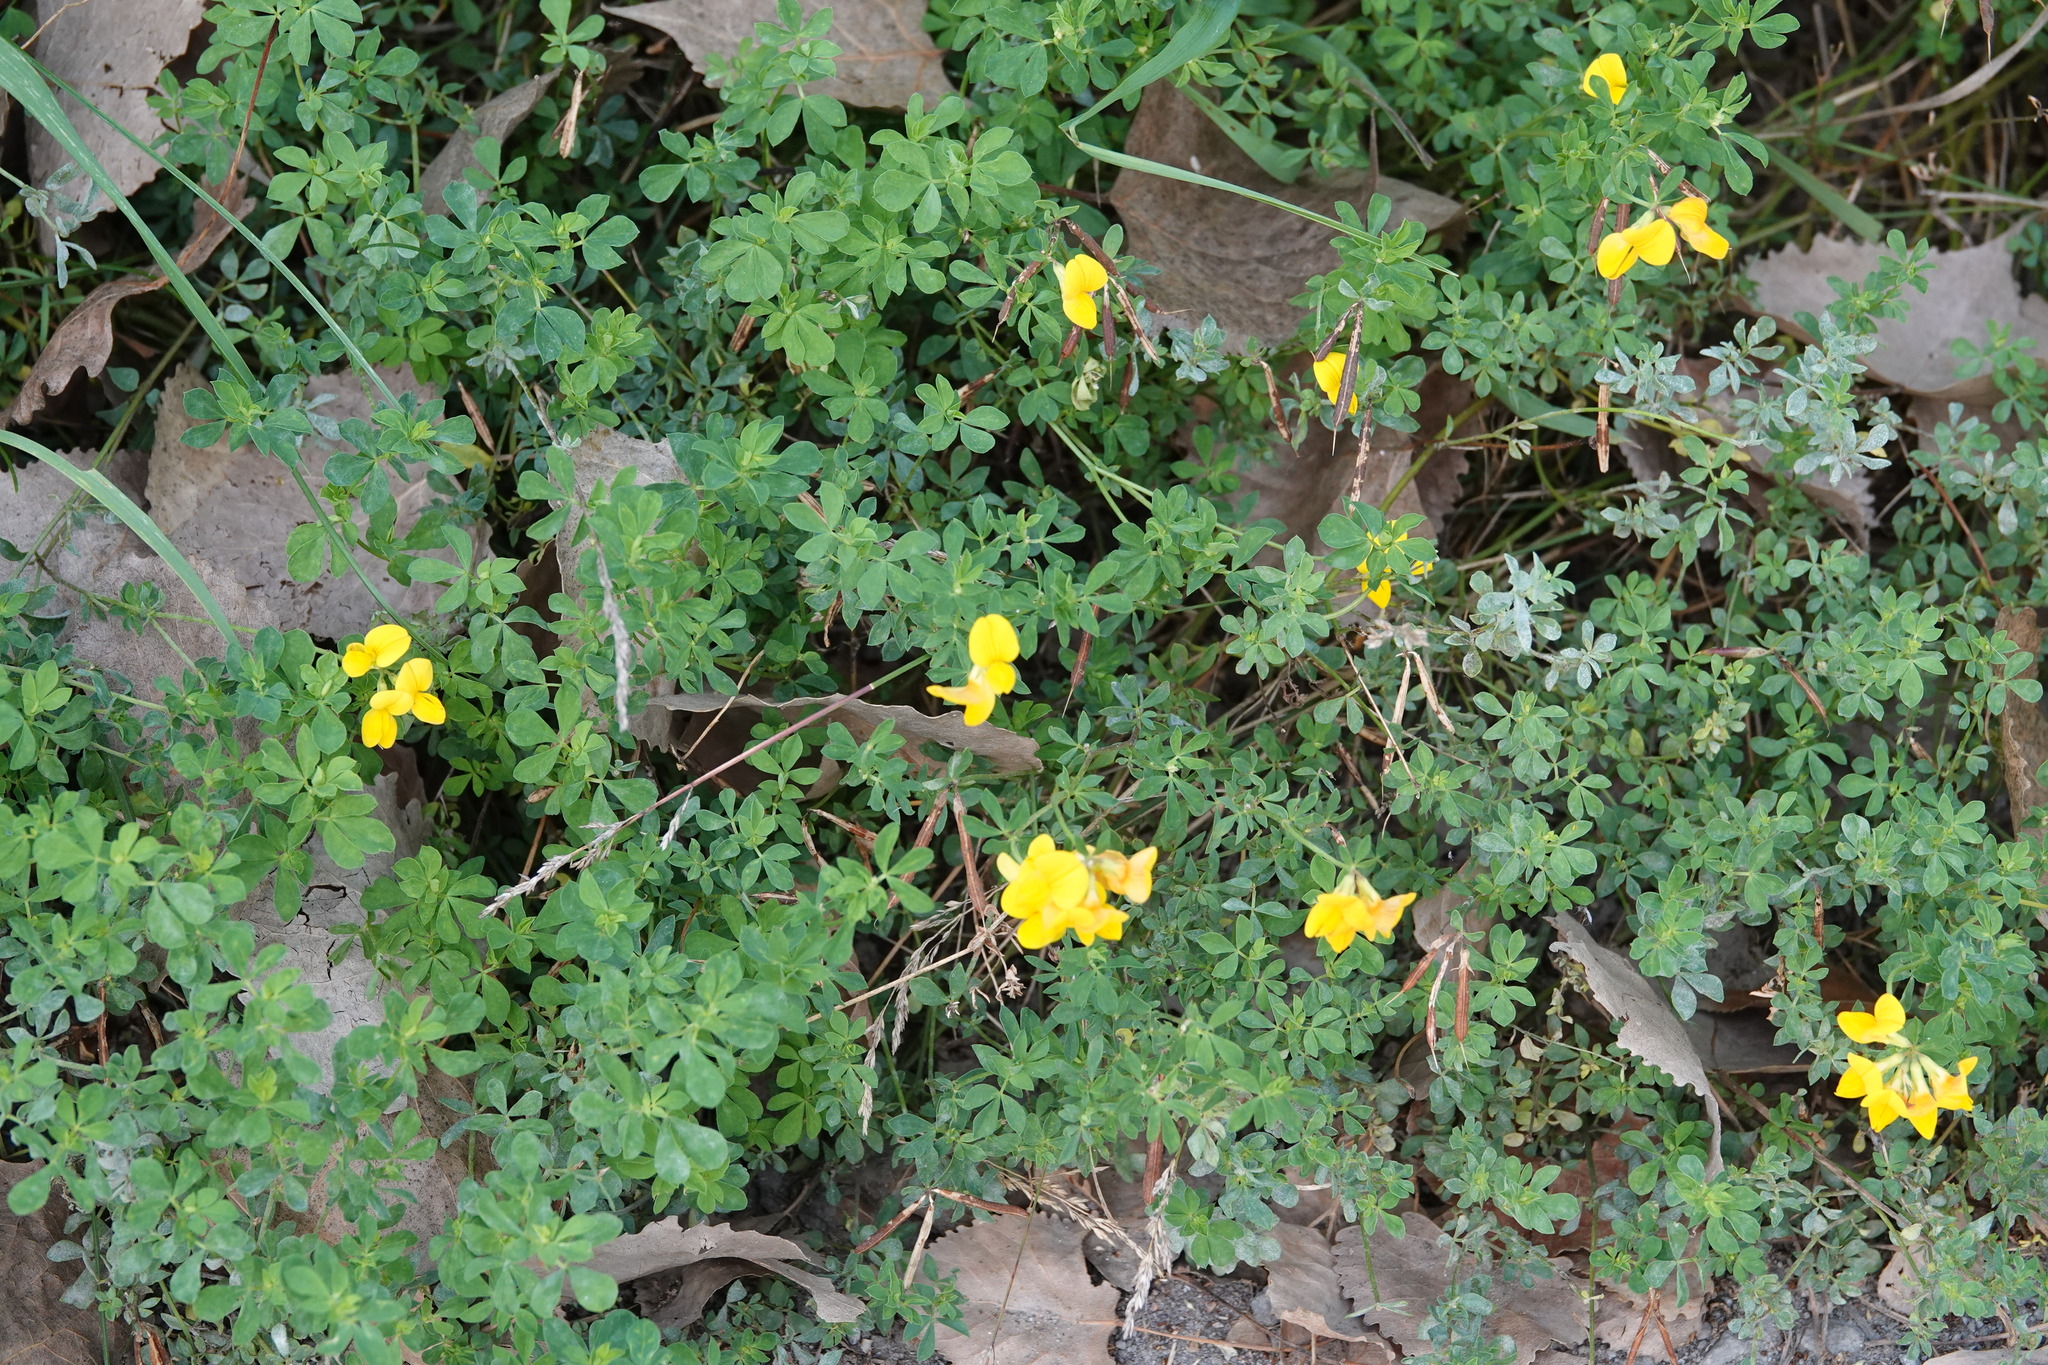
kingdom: Plantae
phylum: Tracheophyta
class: Magnoliopsida
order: Fabales
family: Fabaceae
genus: Lotus
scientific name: Lotus corniculatus
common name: Common bird's-foot-trefoil
